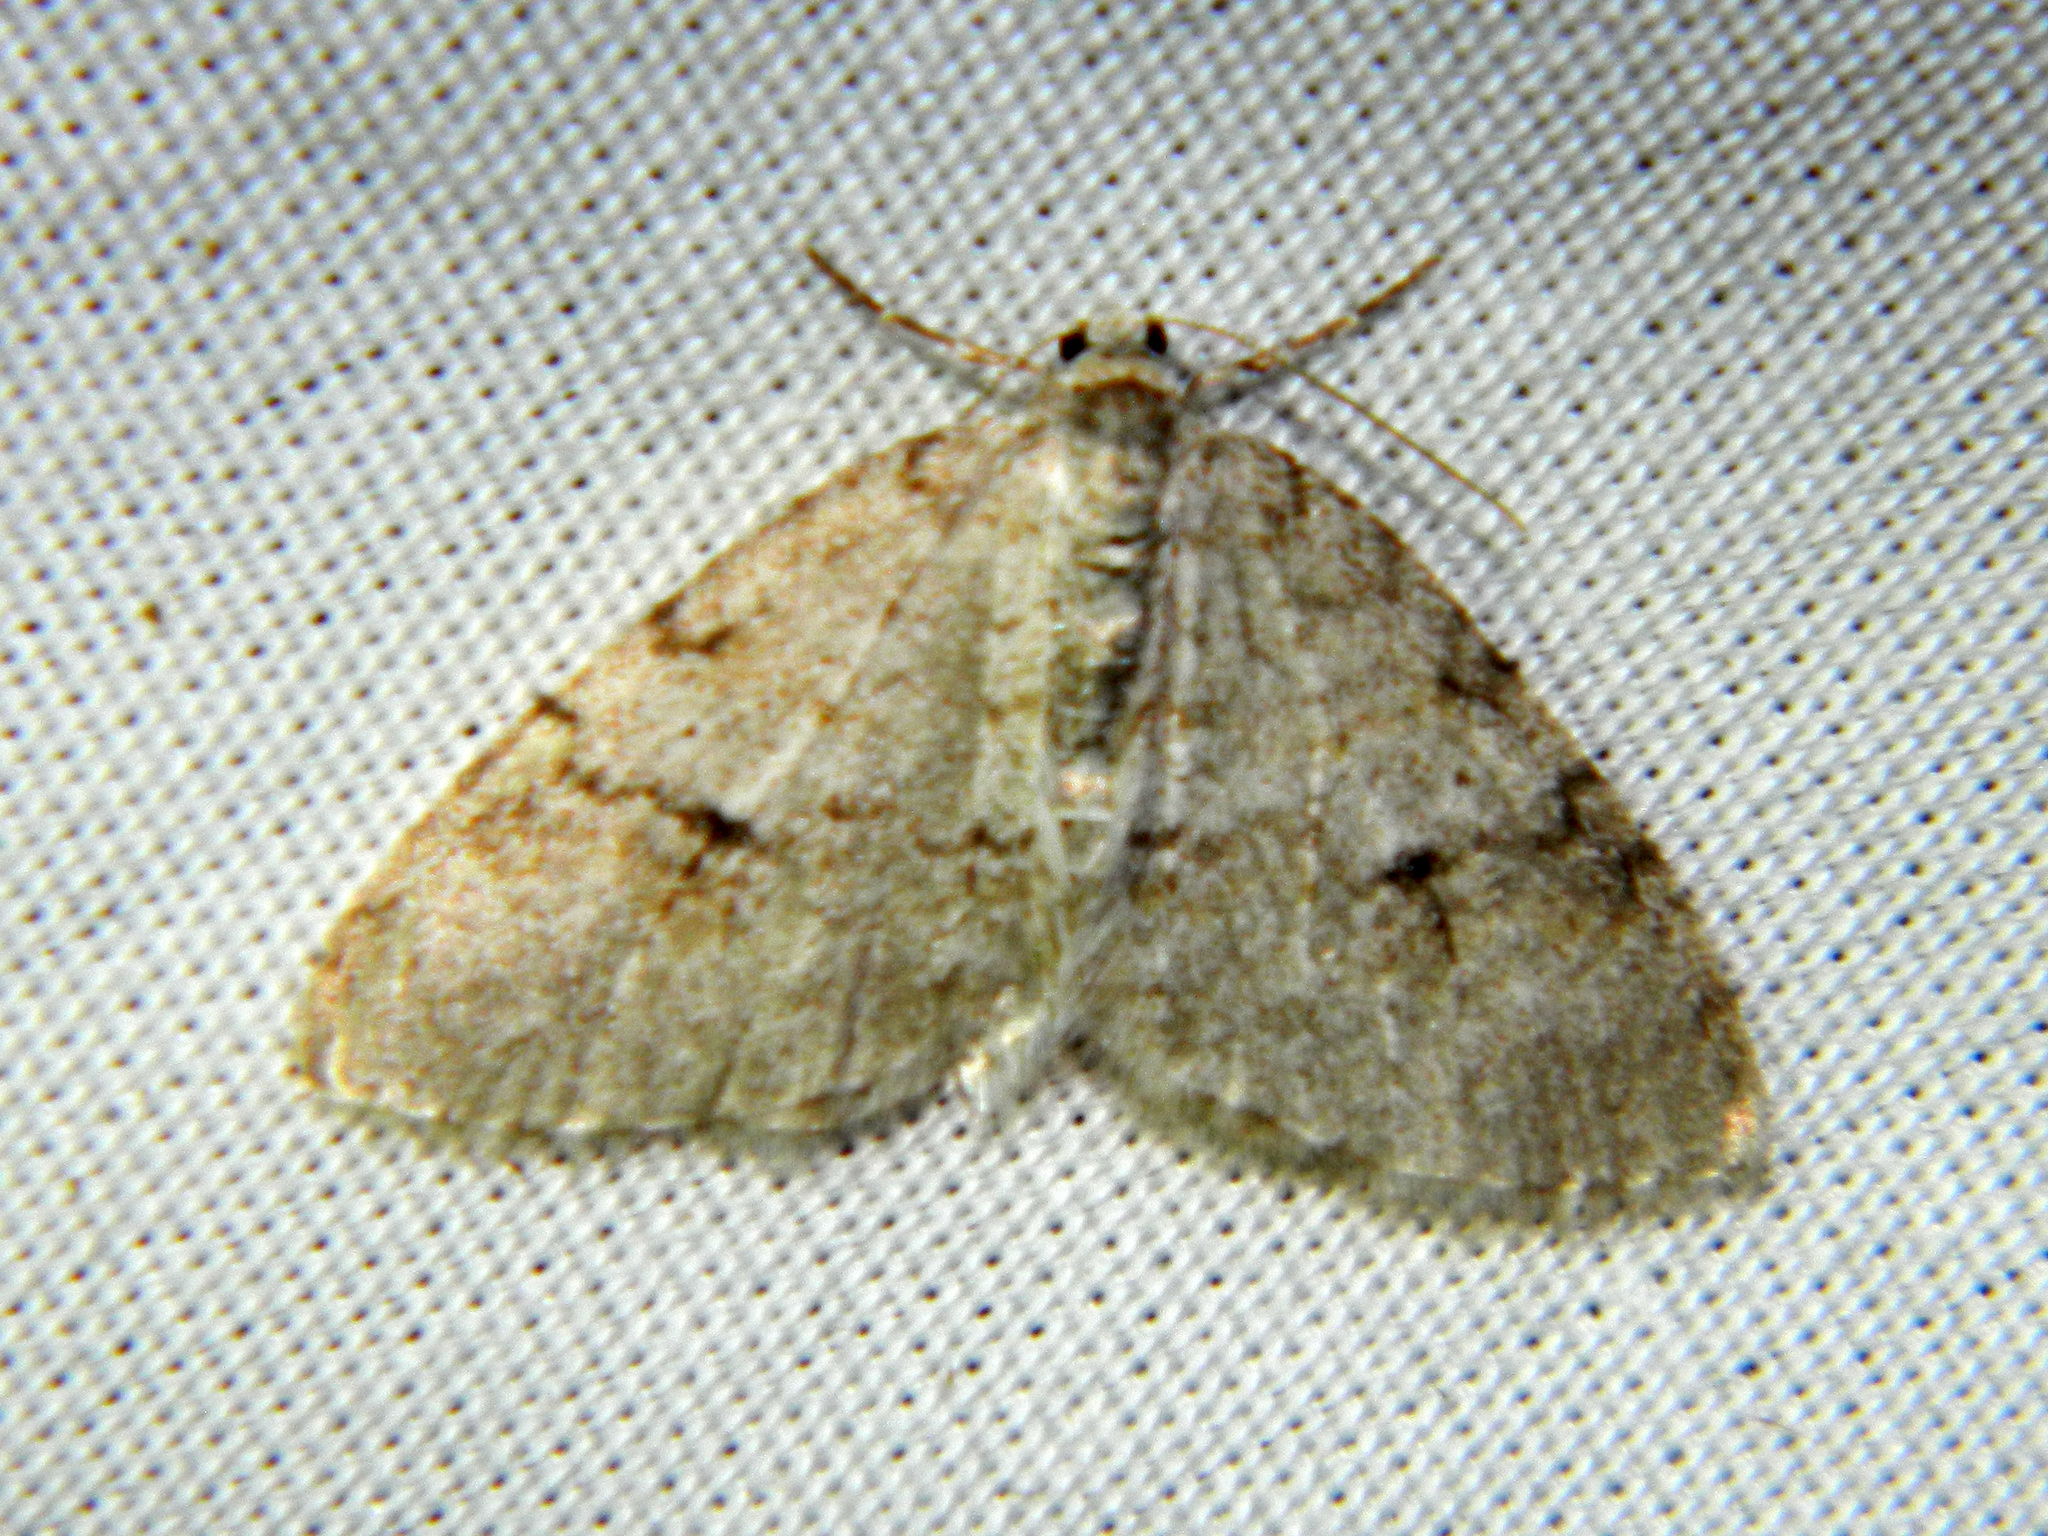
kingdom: Animalia
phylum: Arthropoda
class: Insecta
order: Lepidoptera
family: Geometridae
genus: Venusia
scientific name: Venusia comptaria
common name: Brown-shaded carpet
